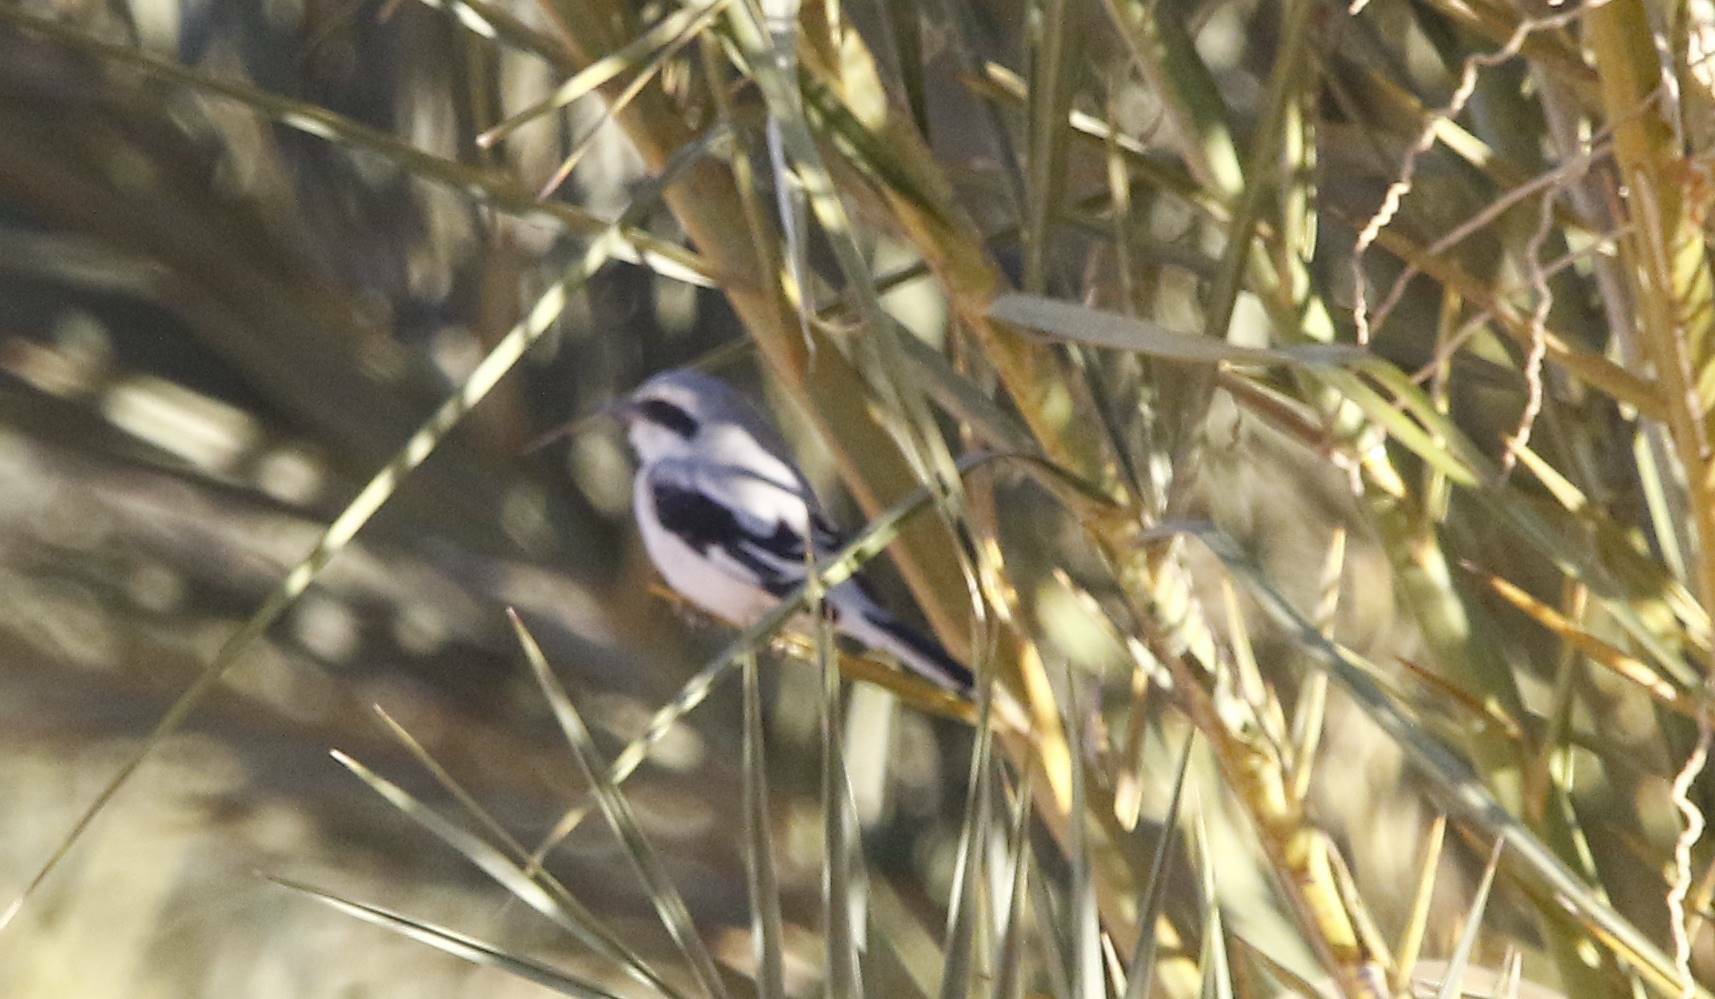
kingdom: Animalia
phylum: Chordata
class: Aves
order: Passeriformes
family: Laniidae
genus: Lanius
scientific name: Lanius excubitor
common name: Great grey shrike
